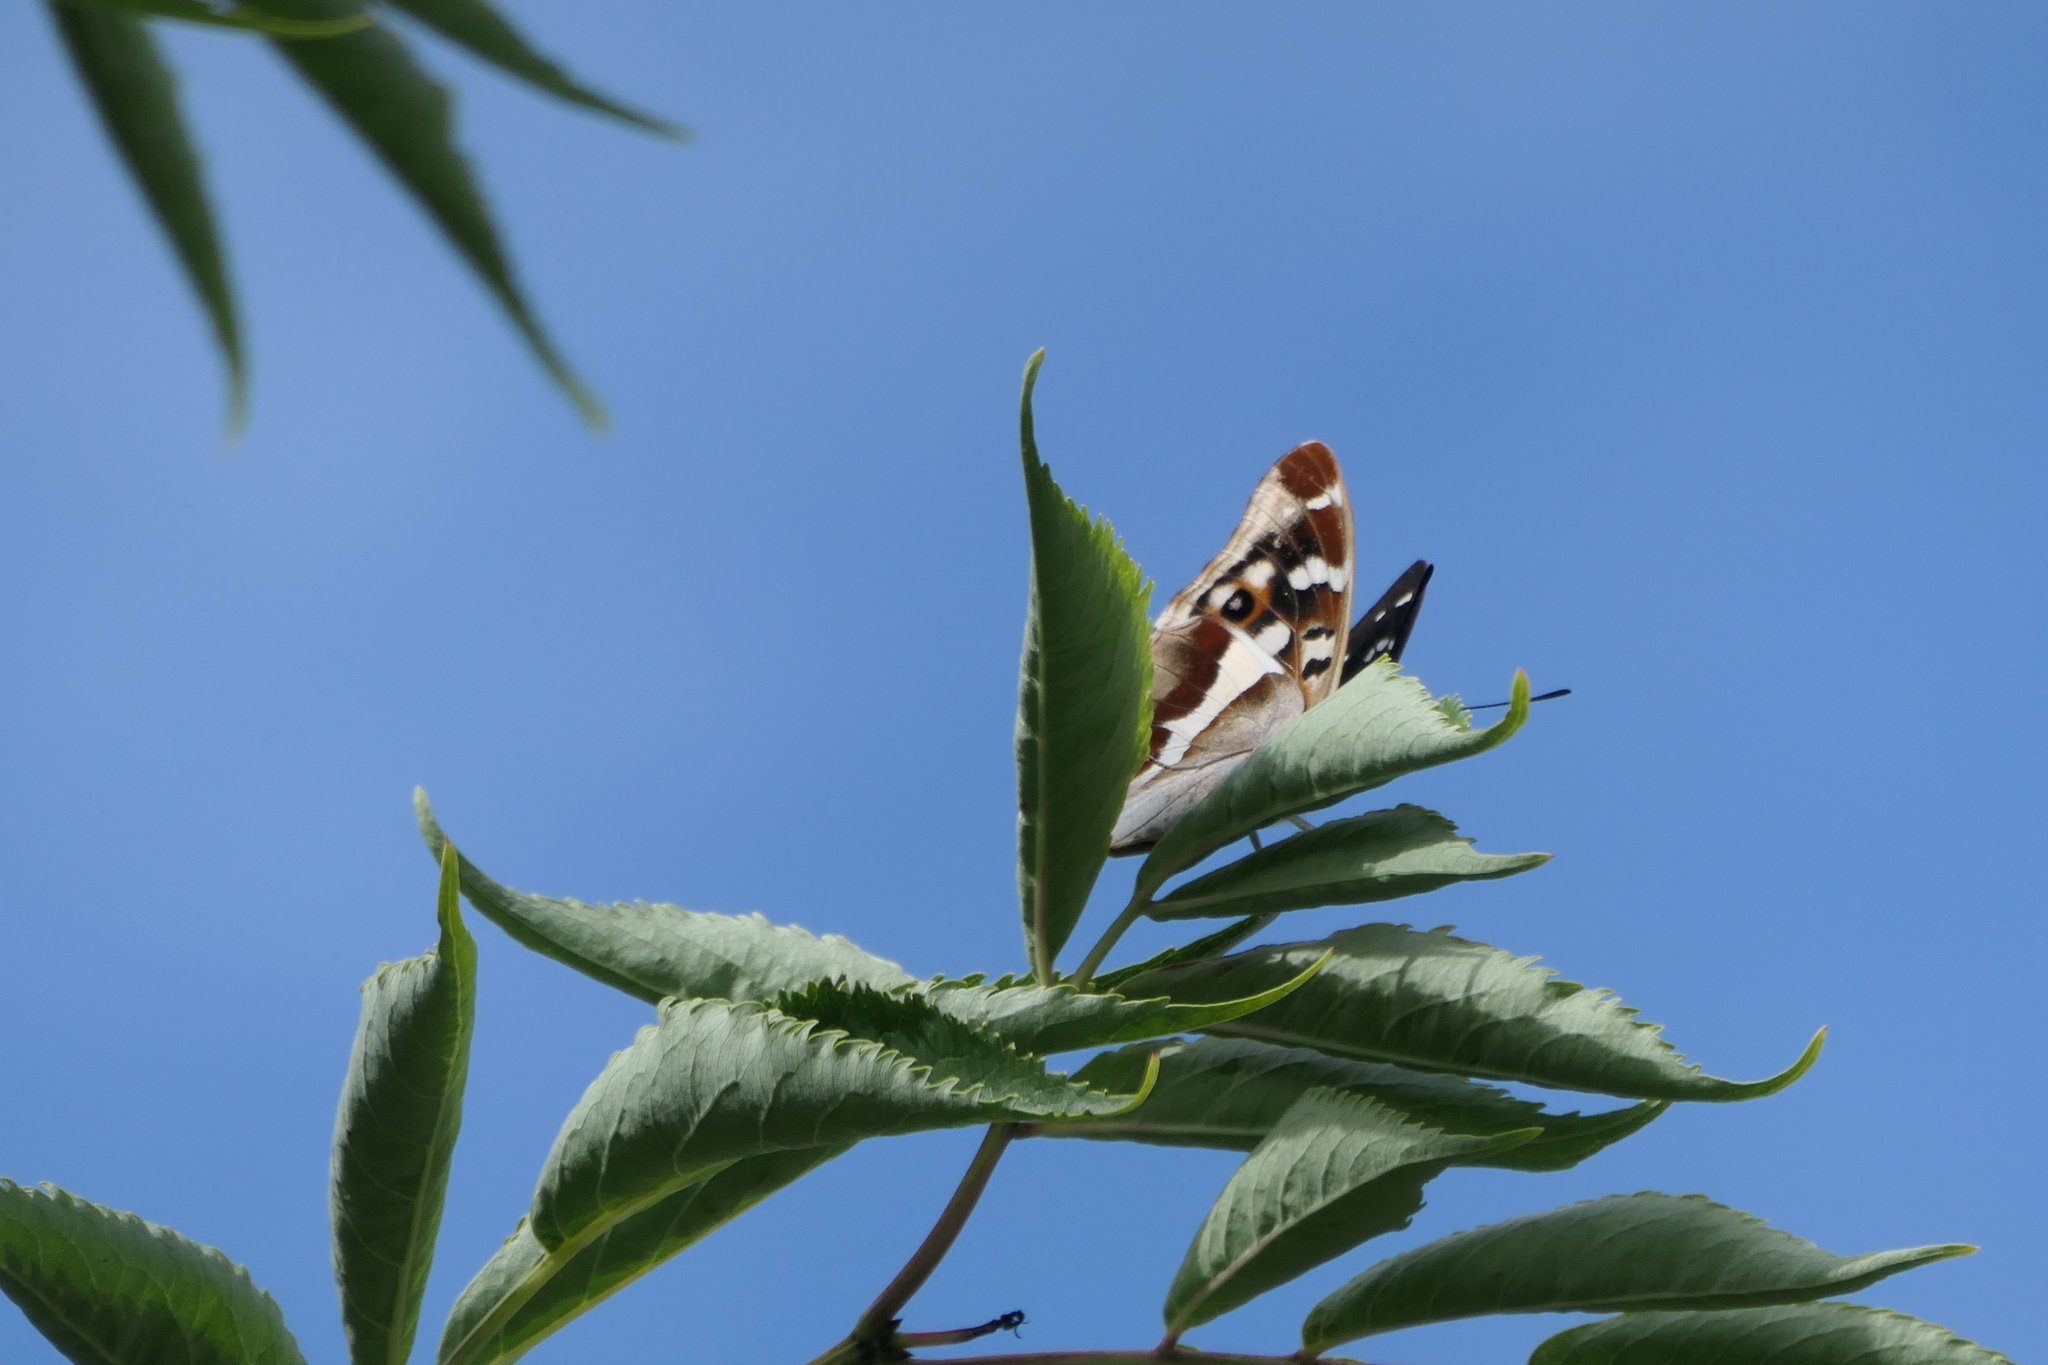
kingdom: Animalia
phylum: Arthropoda
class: Insecta
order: Lepidoptera
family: Nymphalidae
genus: Apatura
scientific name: Apatura iris
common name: Purple emperor
